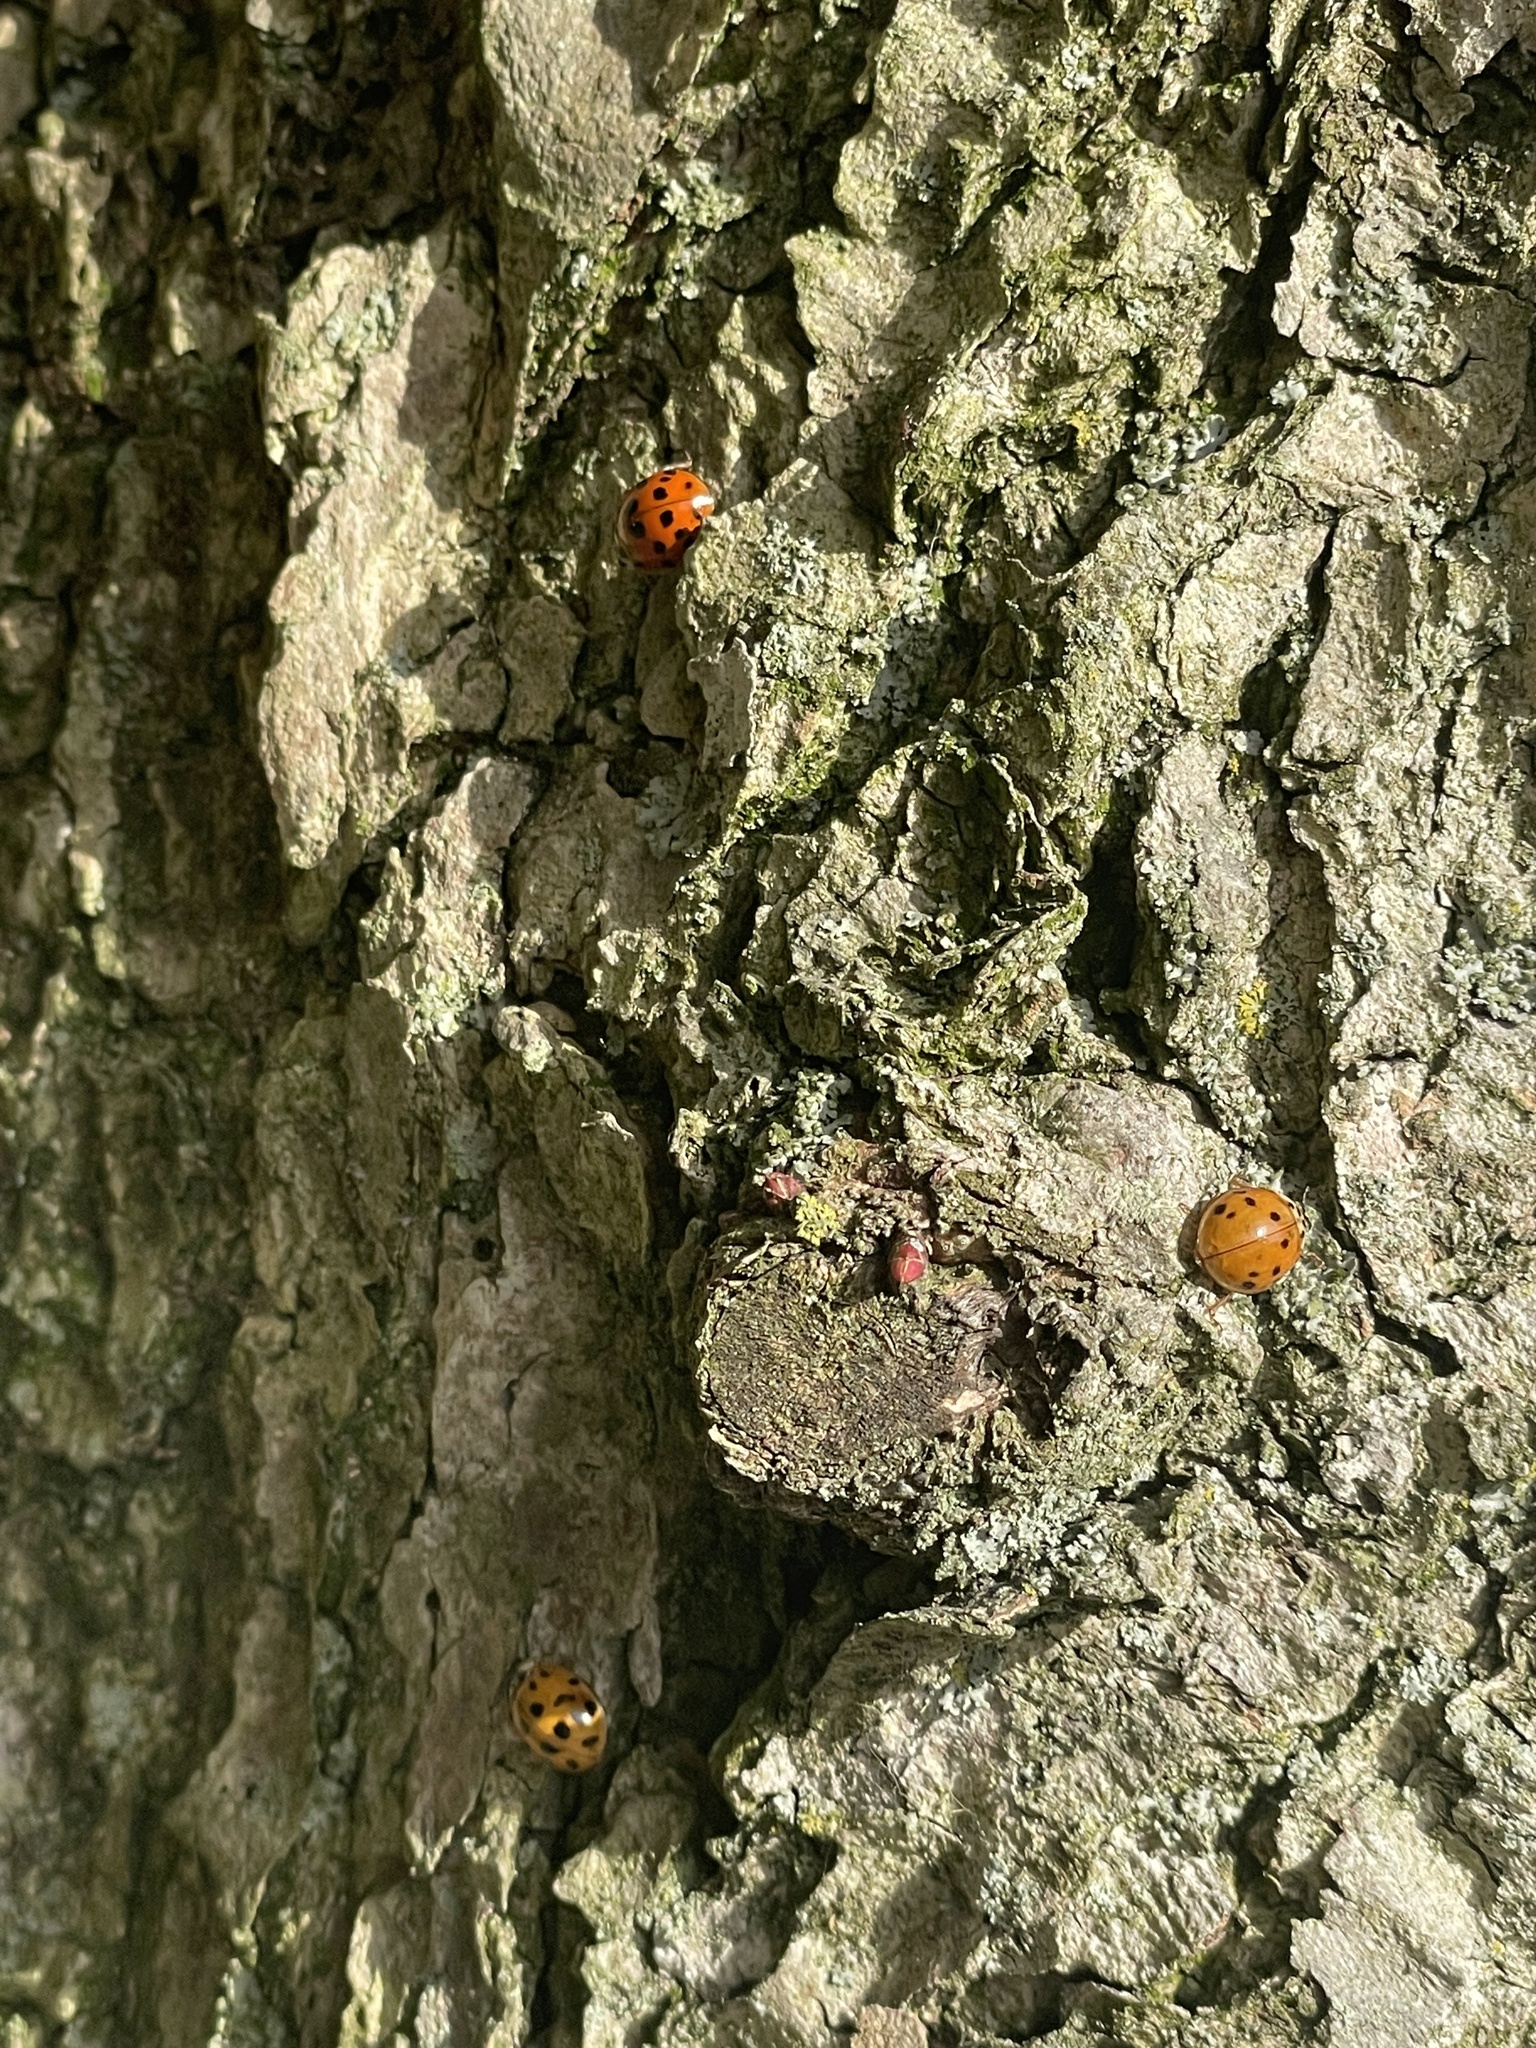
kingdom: Animalia
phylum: Arthropoda
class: Insecta
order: Coleoptera
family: Coccinellidae
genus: Harmonia
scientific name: Harmonia axyridis
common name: Harlequin ladybird
